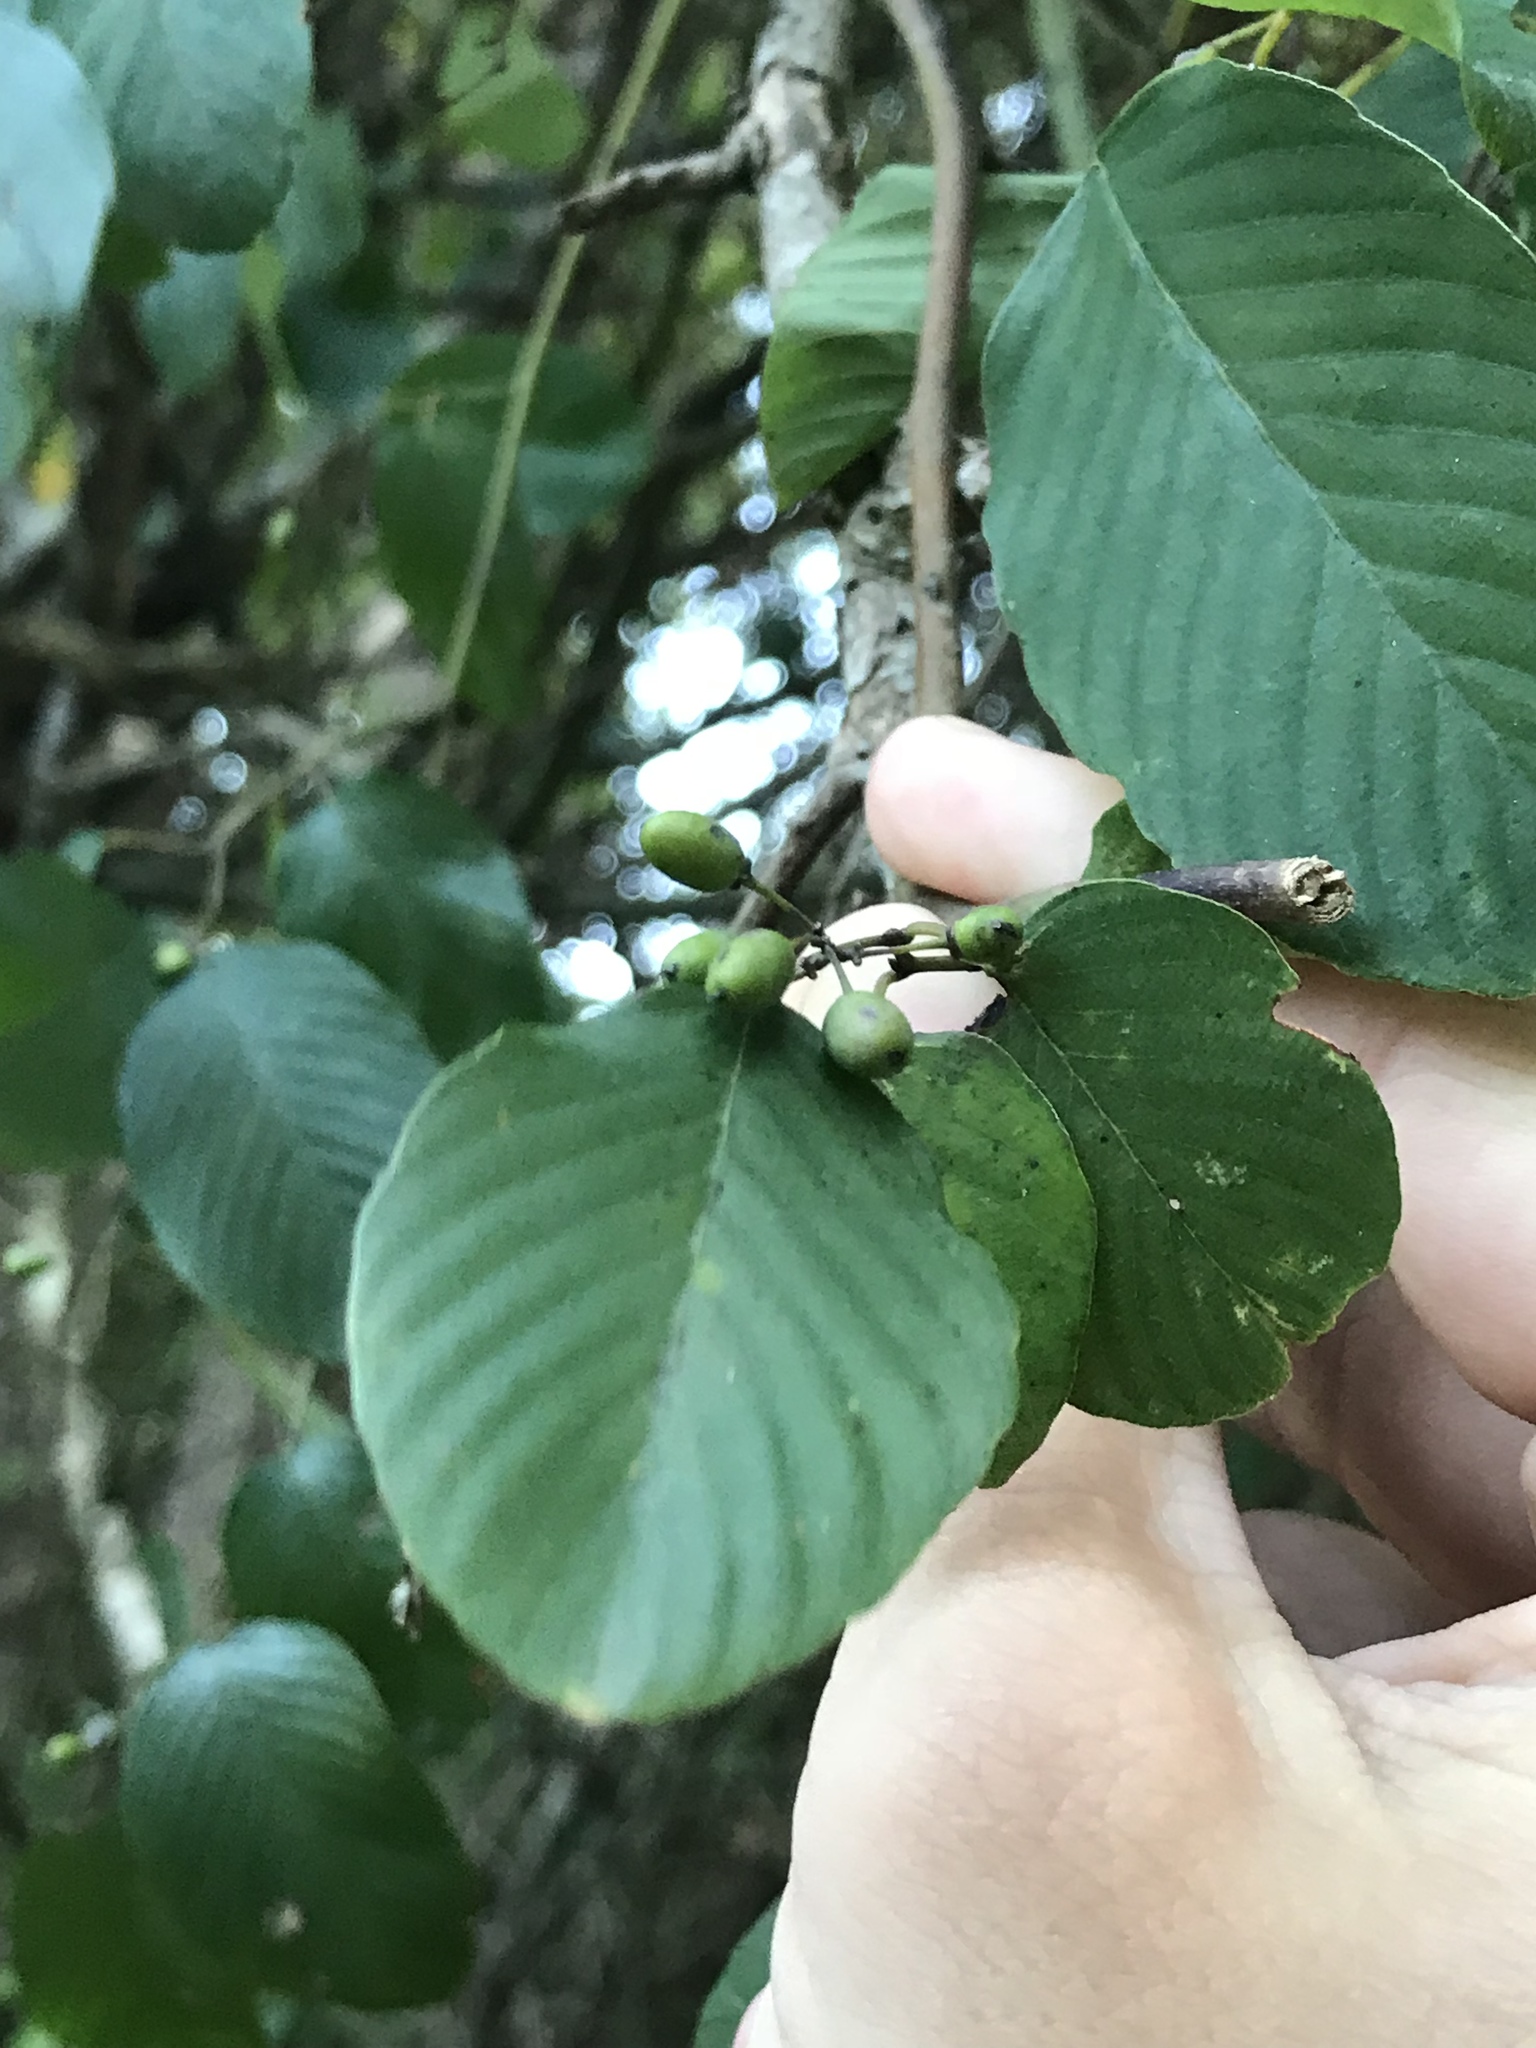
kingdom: Plantae
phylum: Tracheophyta
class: Magnoliopsida
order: Rosales
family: Rhamnaceae
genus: Berchemia
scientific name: Berchemia scandens
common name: Supplejack
